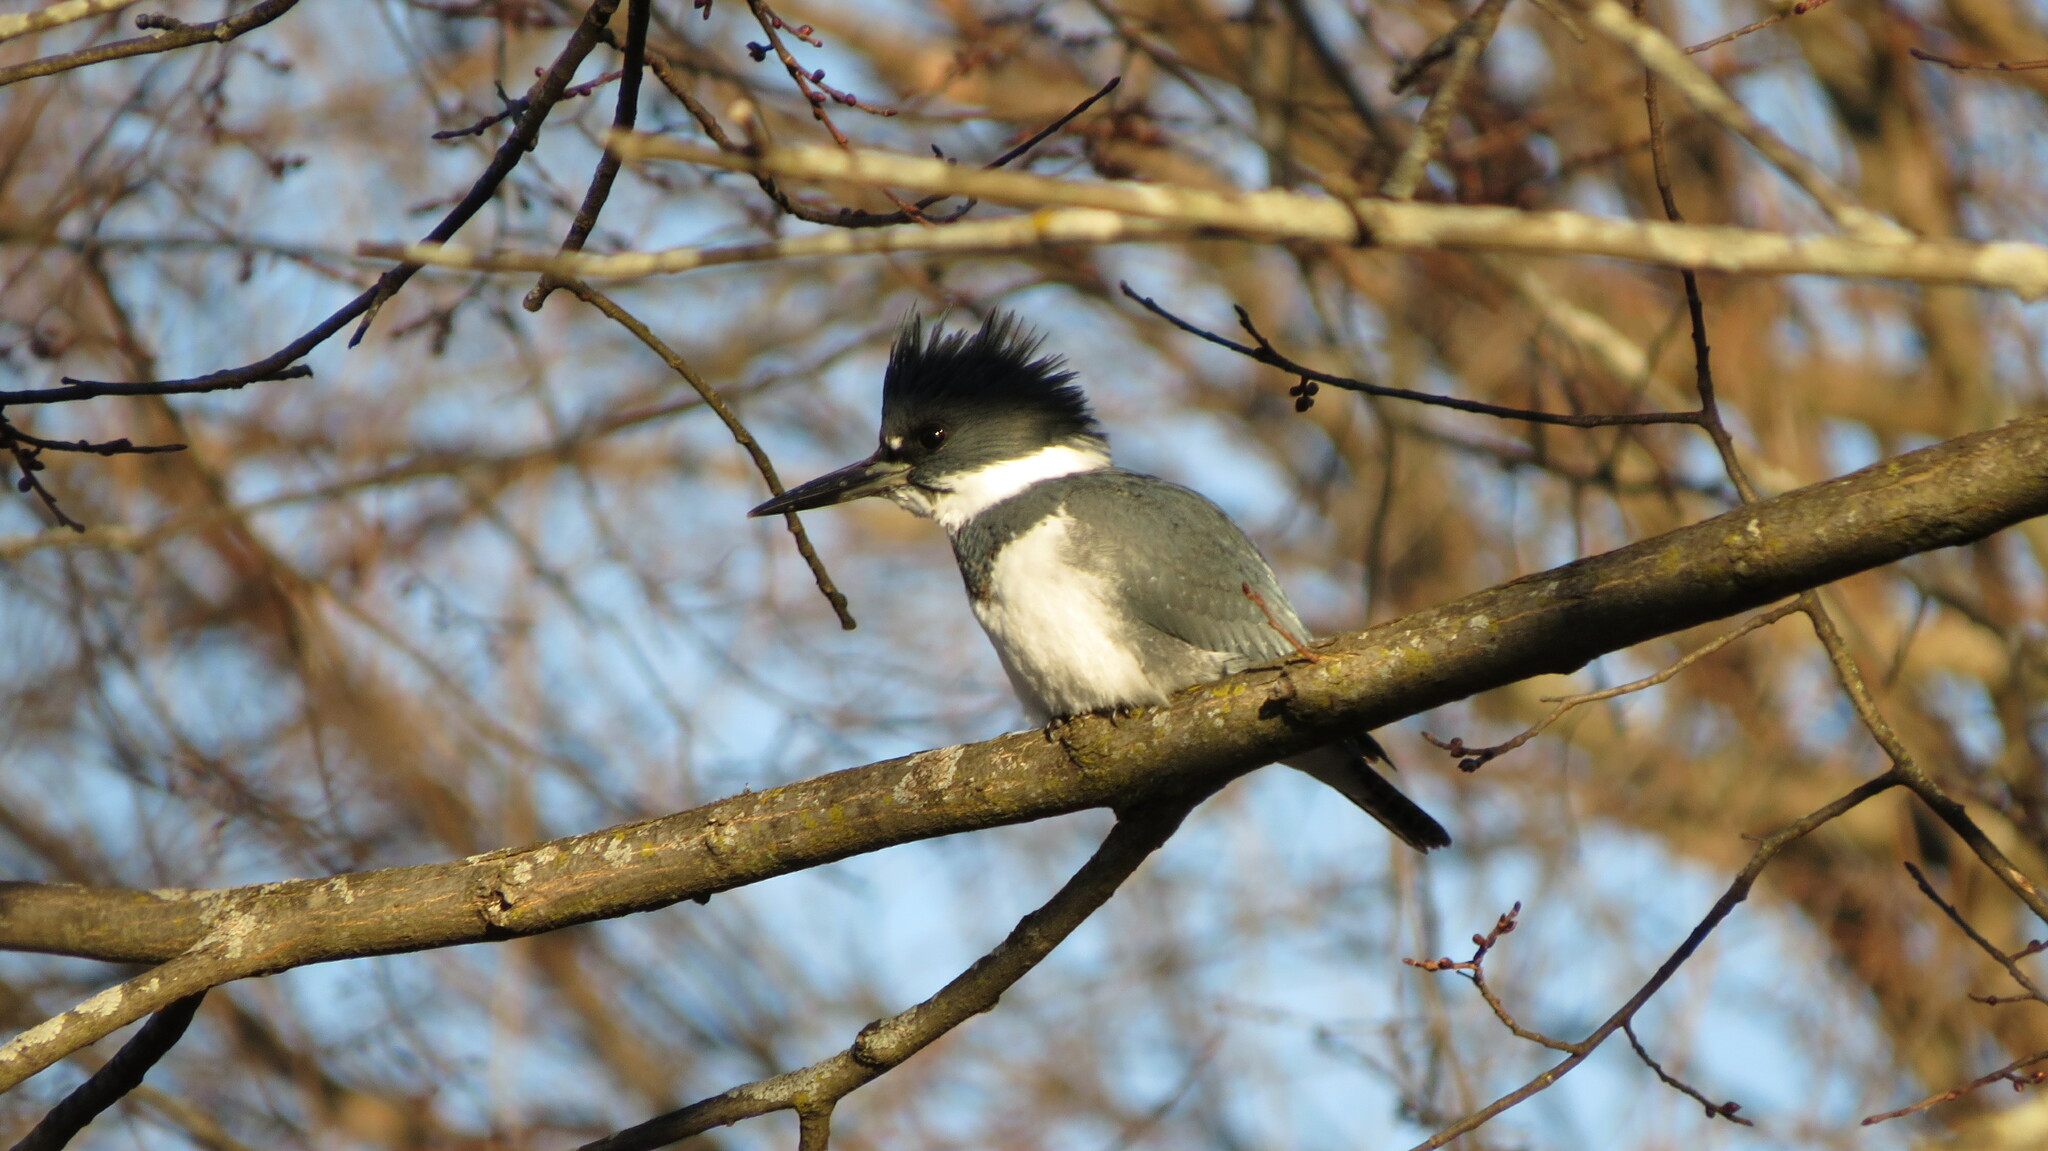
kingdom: Animalia
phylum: Chordata
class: Aves
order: Coraciiformes
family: Alcedinidae
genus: Megaceryle
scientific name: Megaceryle alcyon
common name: Belted kingfisher
